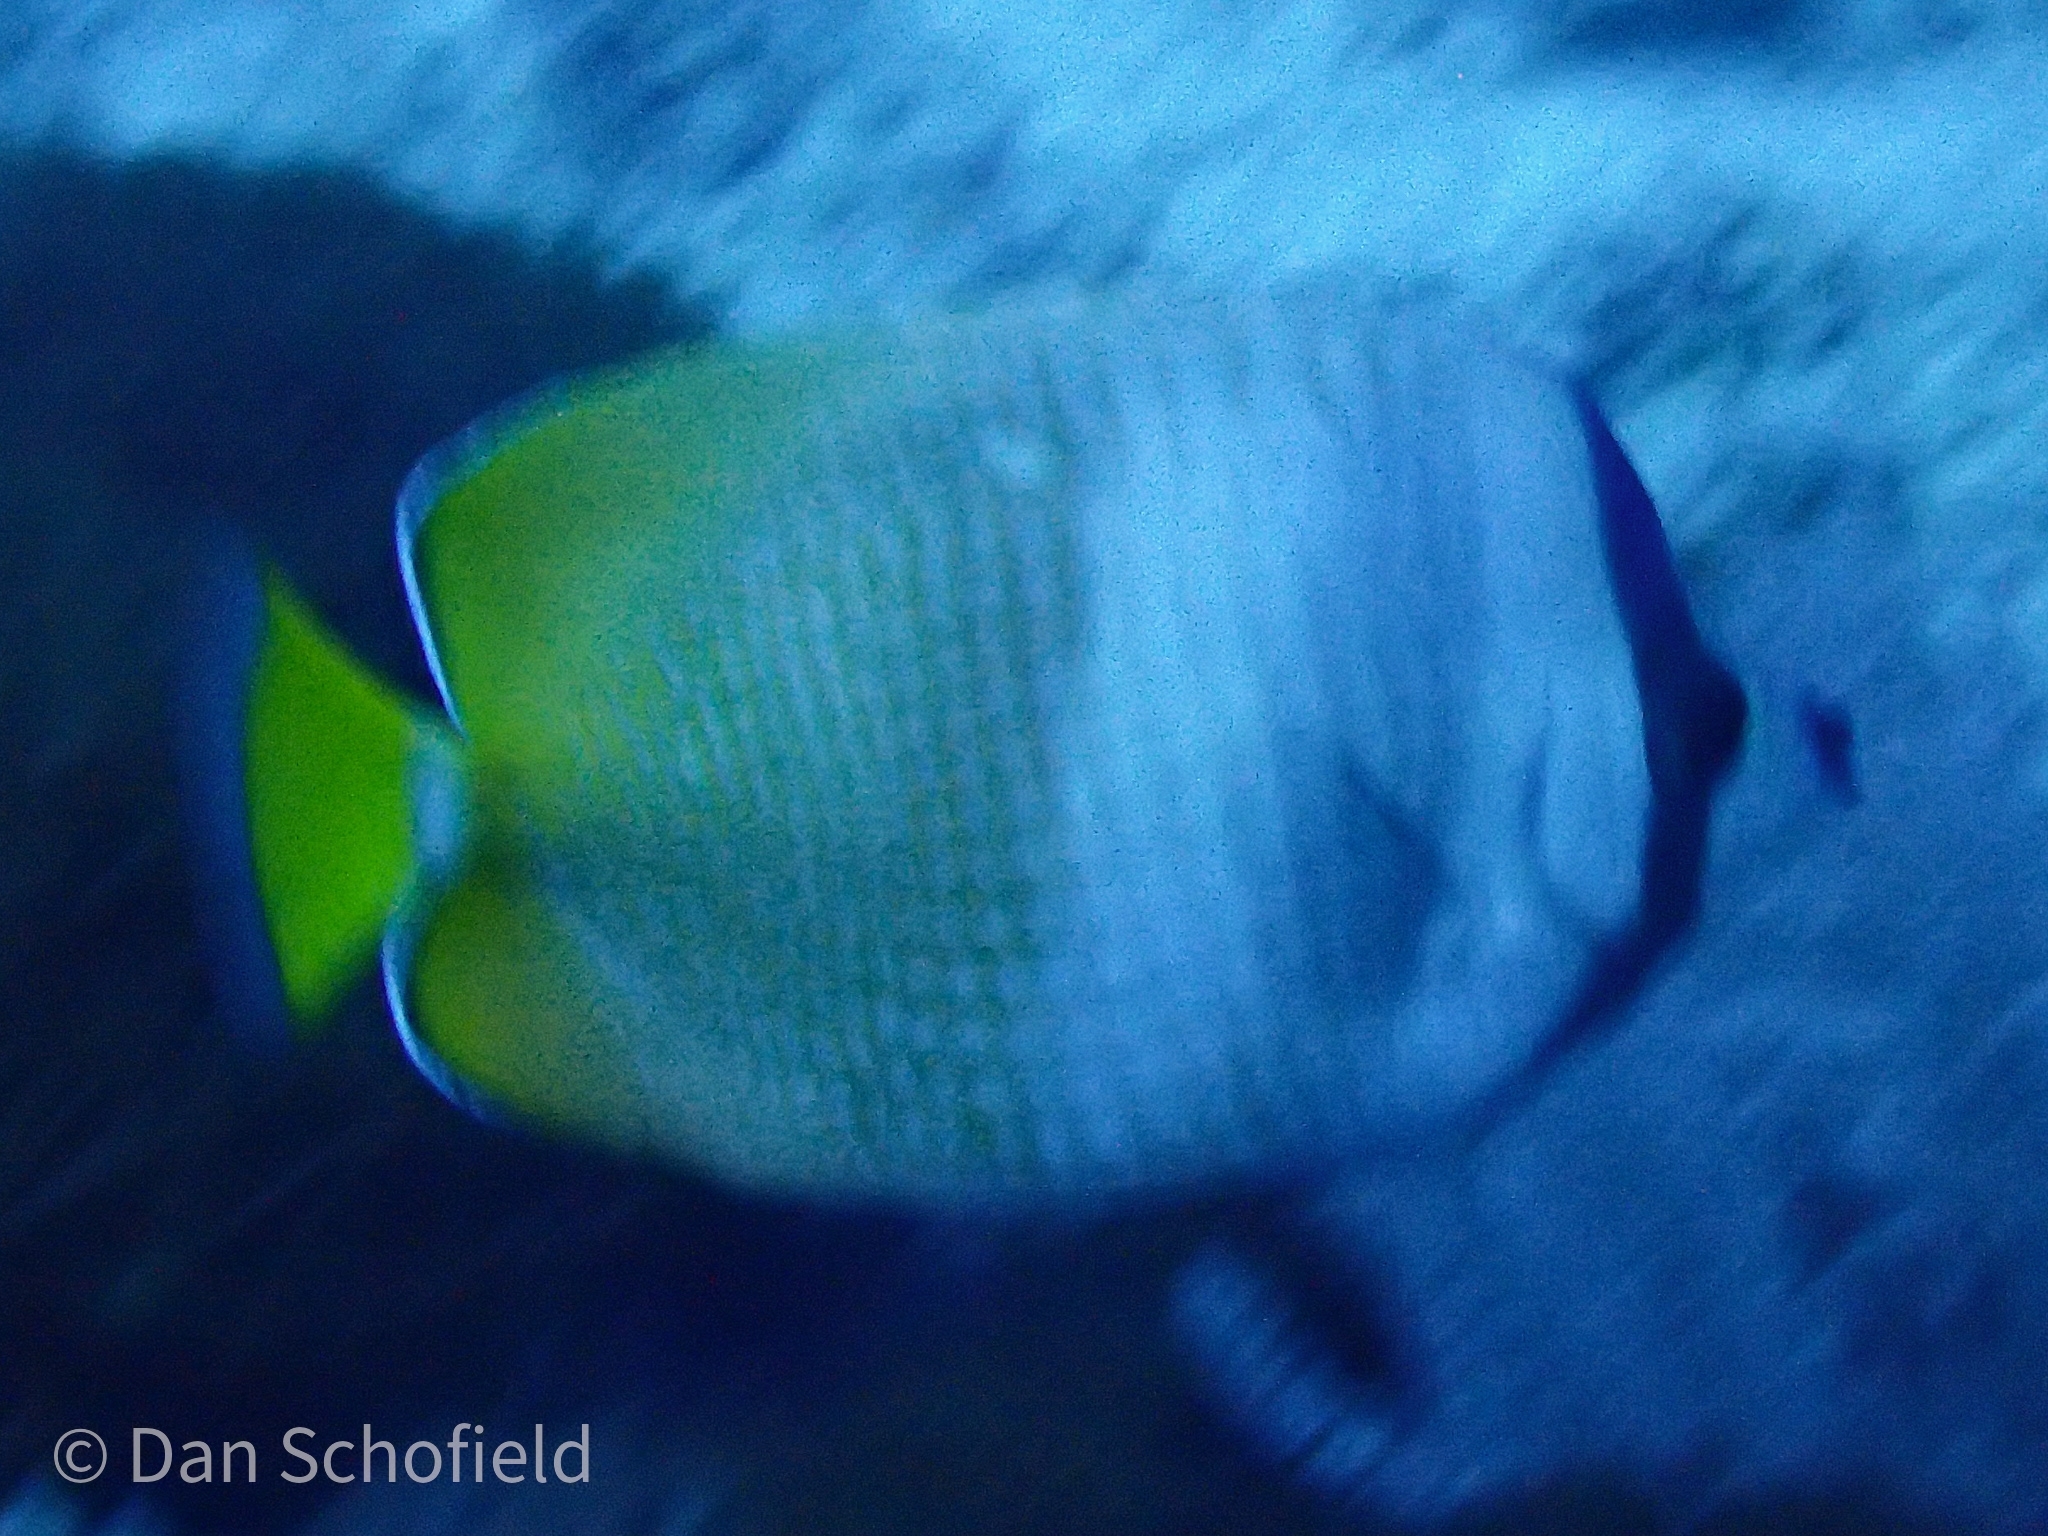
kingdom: Animalia
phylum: Chordata
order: Perciformes
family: Chaetodontidae
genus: Chaetodon
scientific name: Chaetodon kleinii
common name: Klein's butterflyfish
